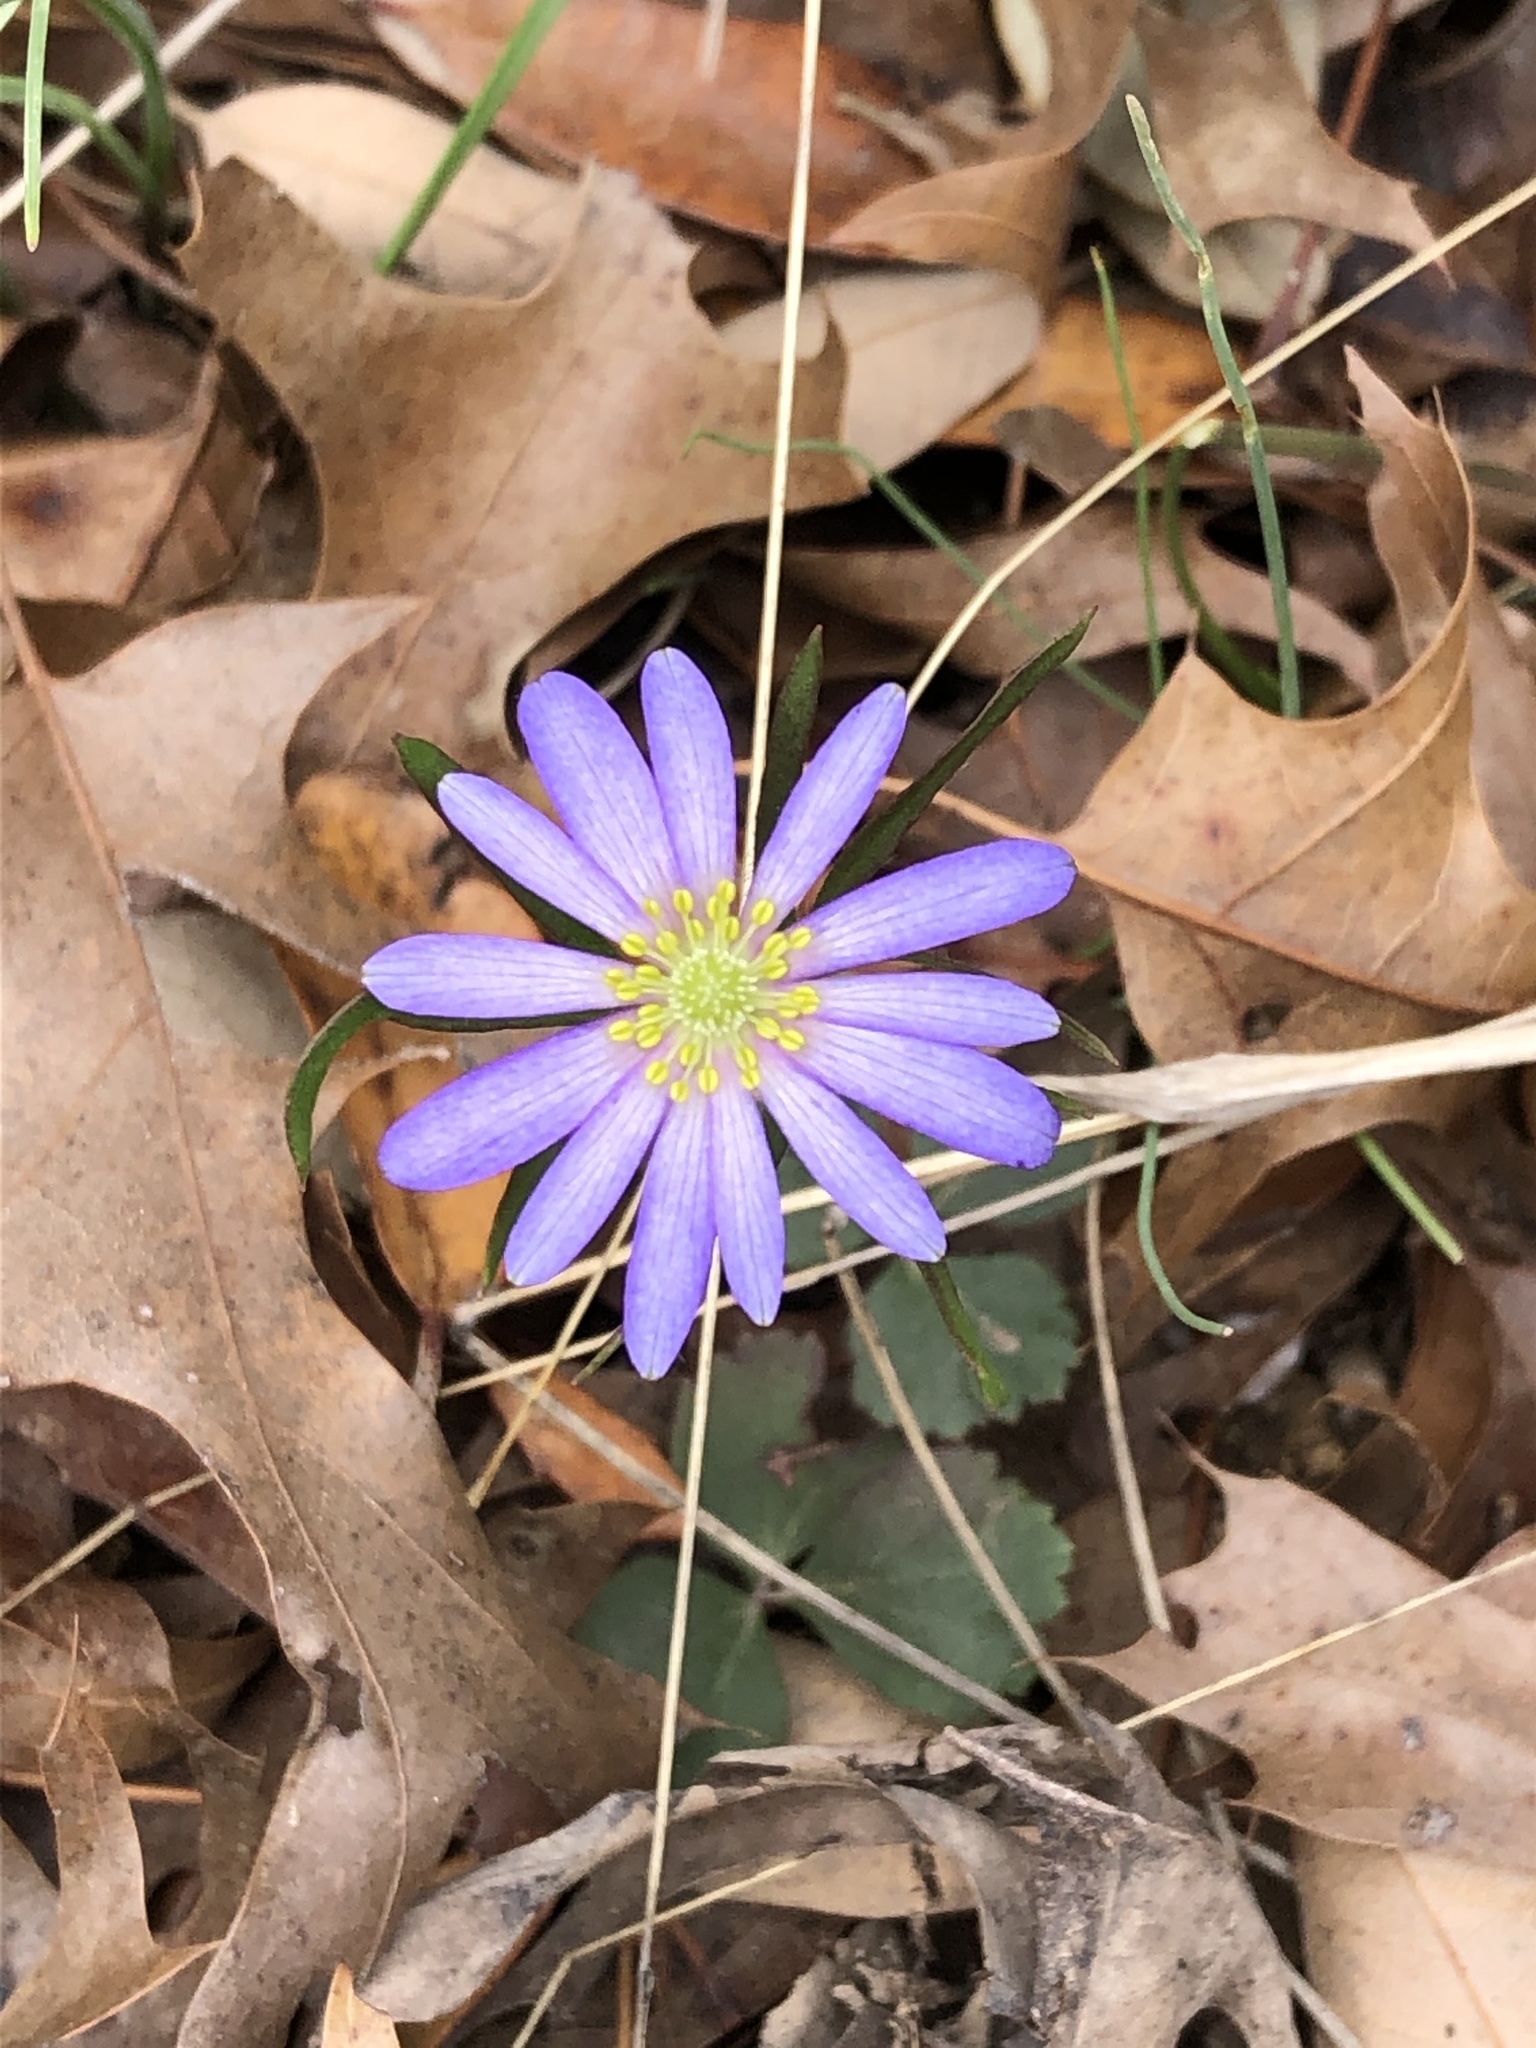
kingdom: Plantae
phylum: Tracheophyta
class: Magnoliopsida
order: Ranunculales
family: Ranunculaceae
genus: Anemone
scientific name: Anemone berlandieri
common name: Ten-petal anemone
